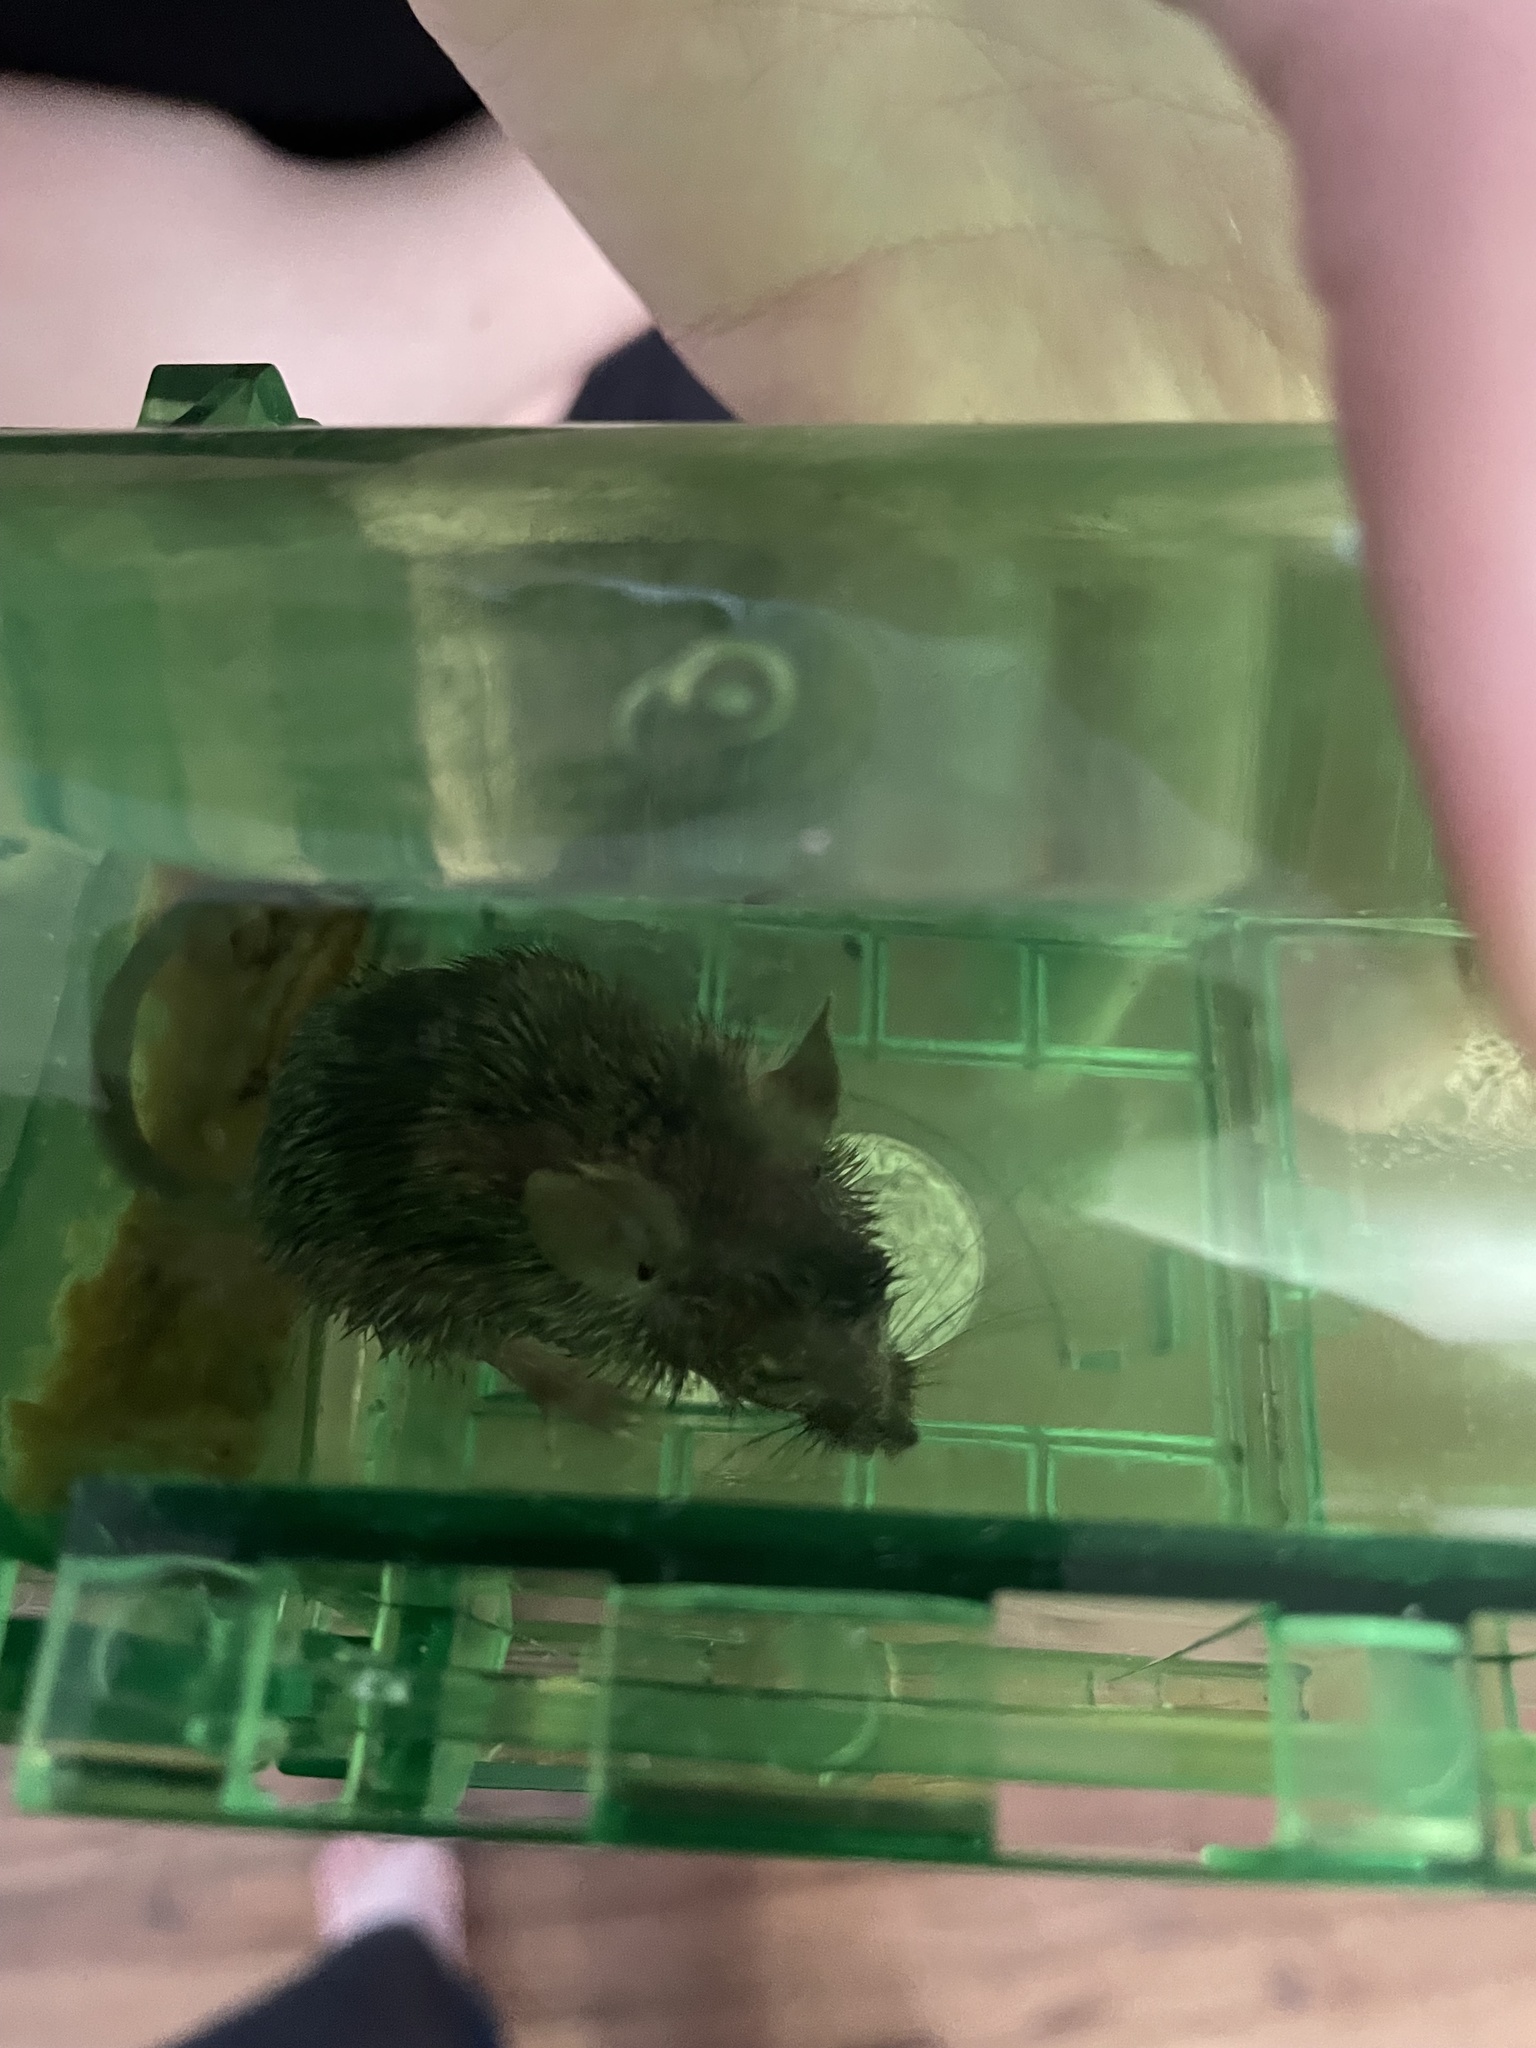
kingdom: Animalia
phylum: Chordata
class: Mammalia
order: Rodentia
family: Muridae
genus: Mus
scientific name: Mus musculus
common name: House mouse
